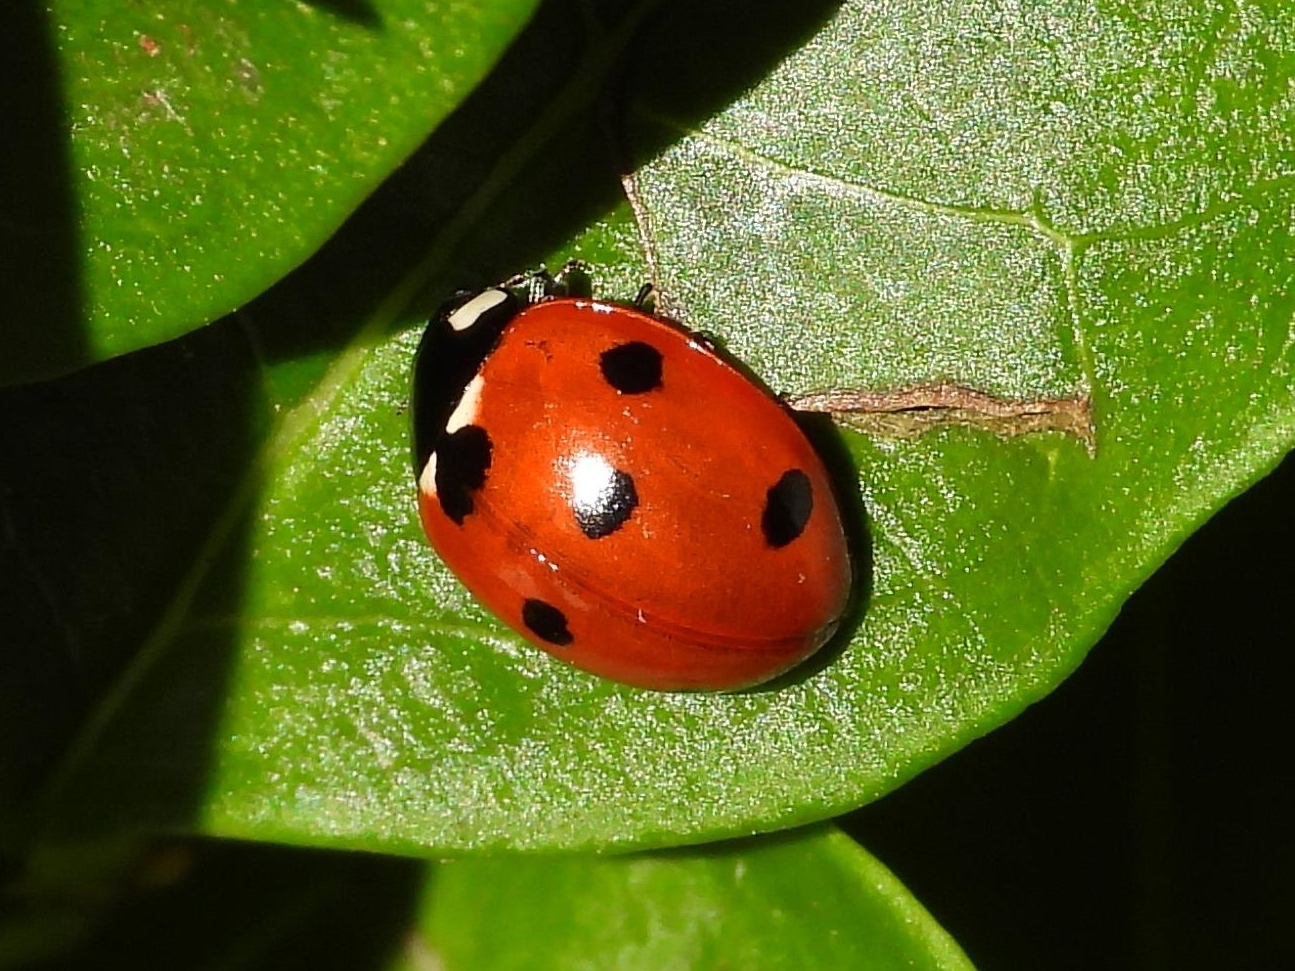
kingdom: Animalia
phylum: Arthropoda
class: Insecta
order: Coleoptera
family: Coccinellidae
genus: Coccinella
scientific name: Coccinella septempunctata
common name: Sevenspotted lady beetle
